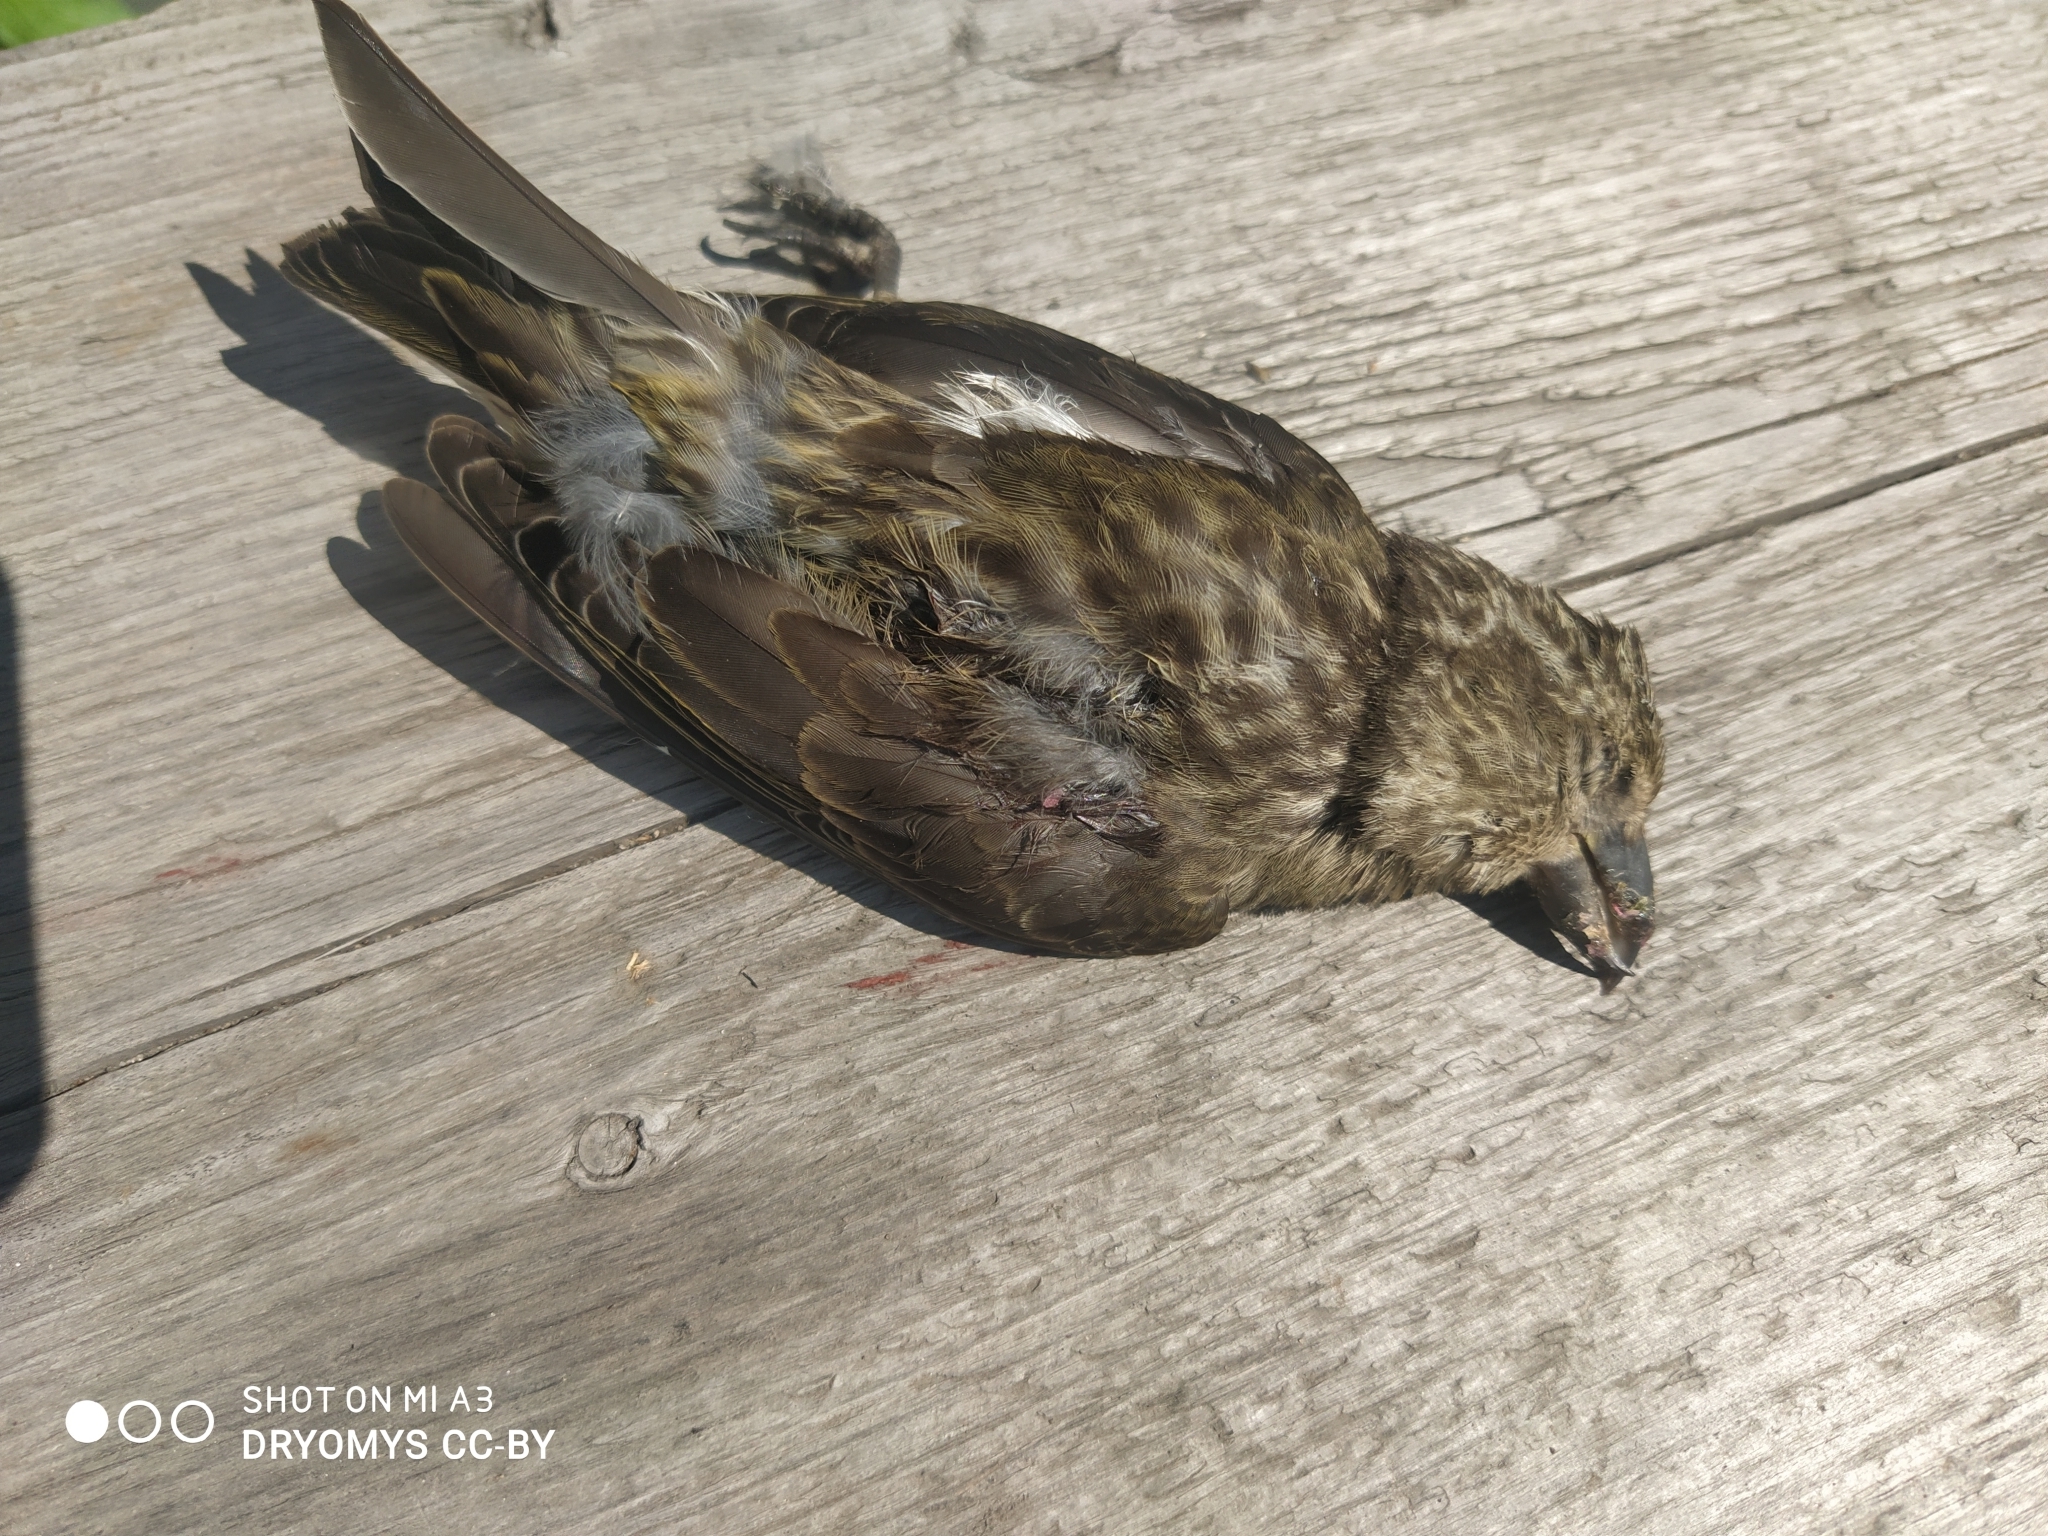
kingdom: Animalia
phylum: Chordata
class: Aves
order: Passeriformes
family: Fringillidae
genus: Loxia
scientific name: Loxia curvirostra
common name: Red crossbill
